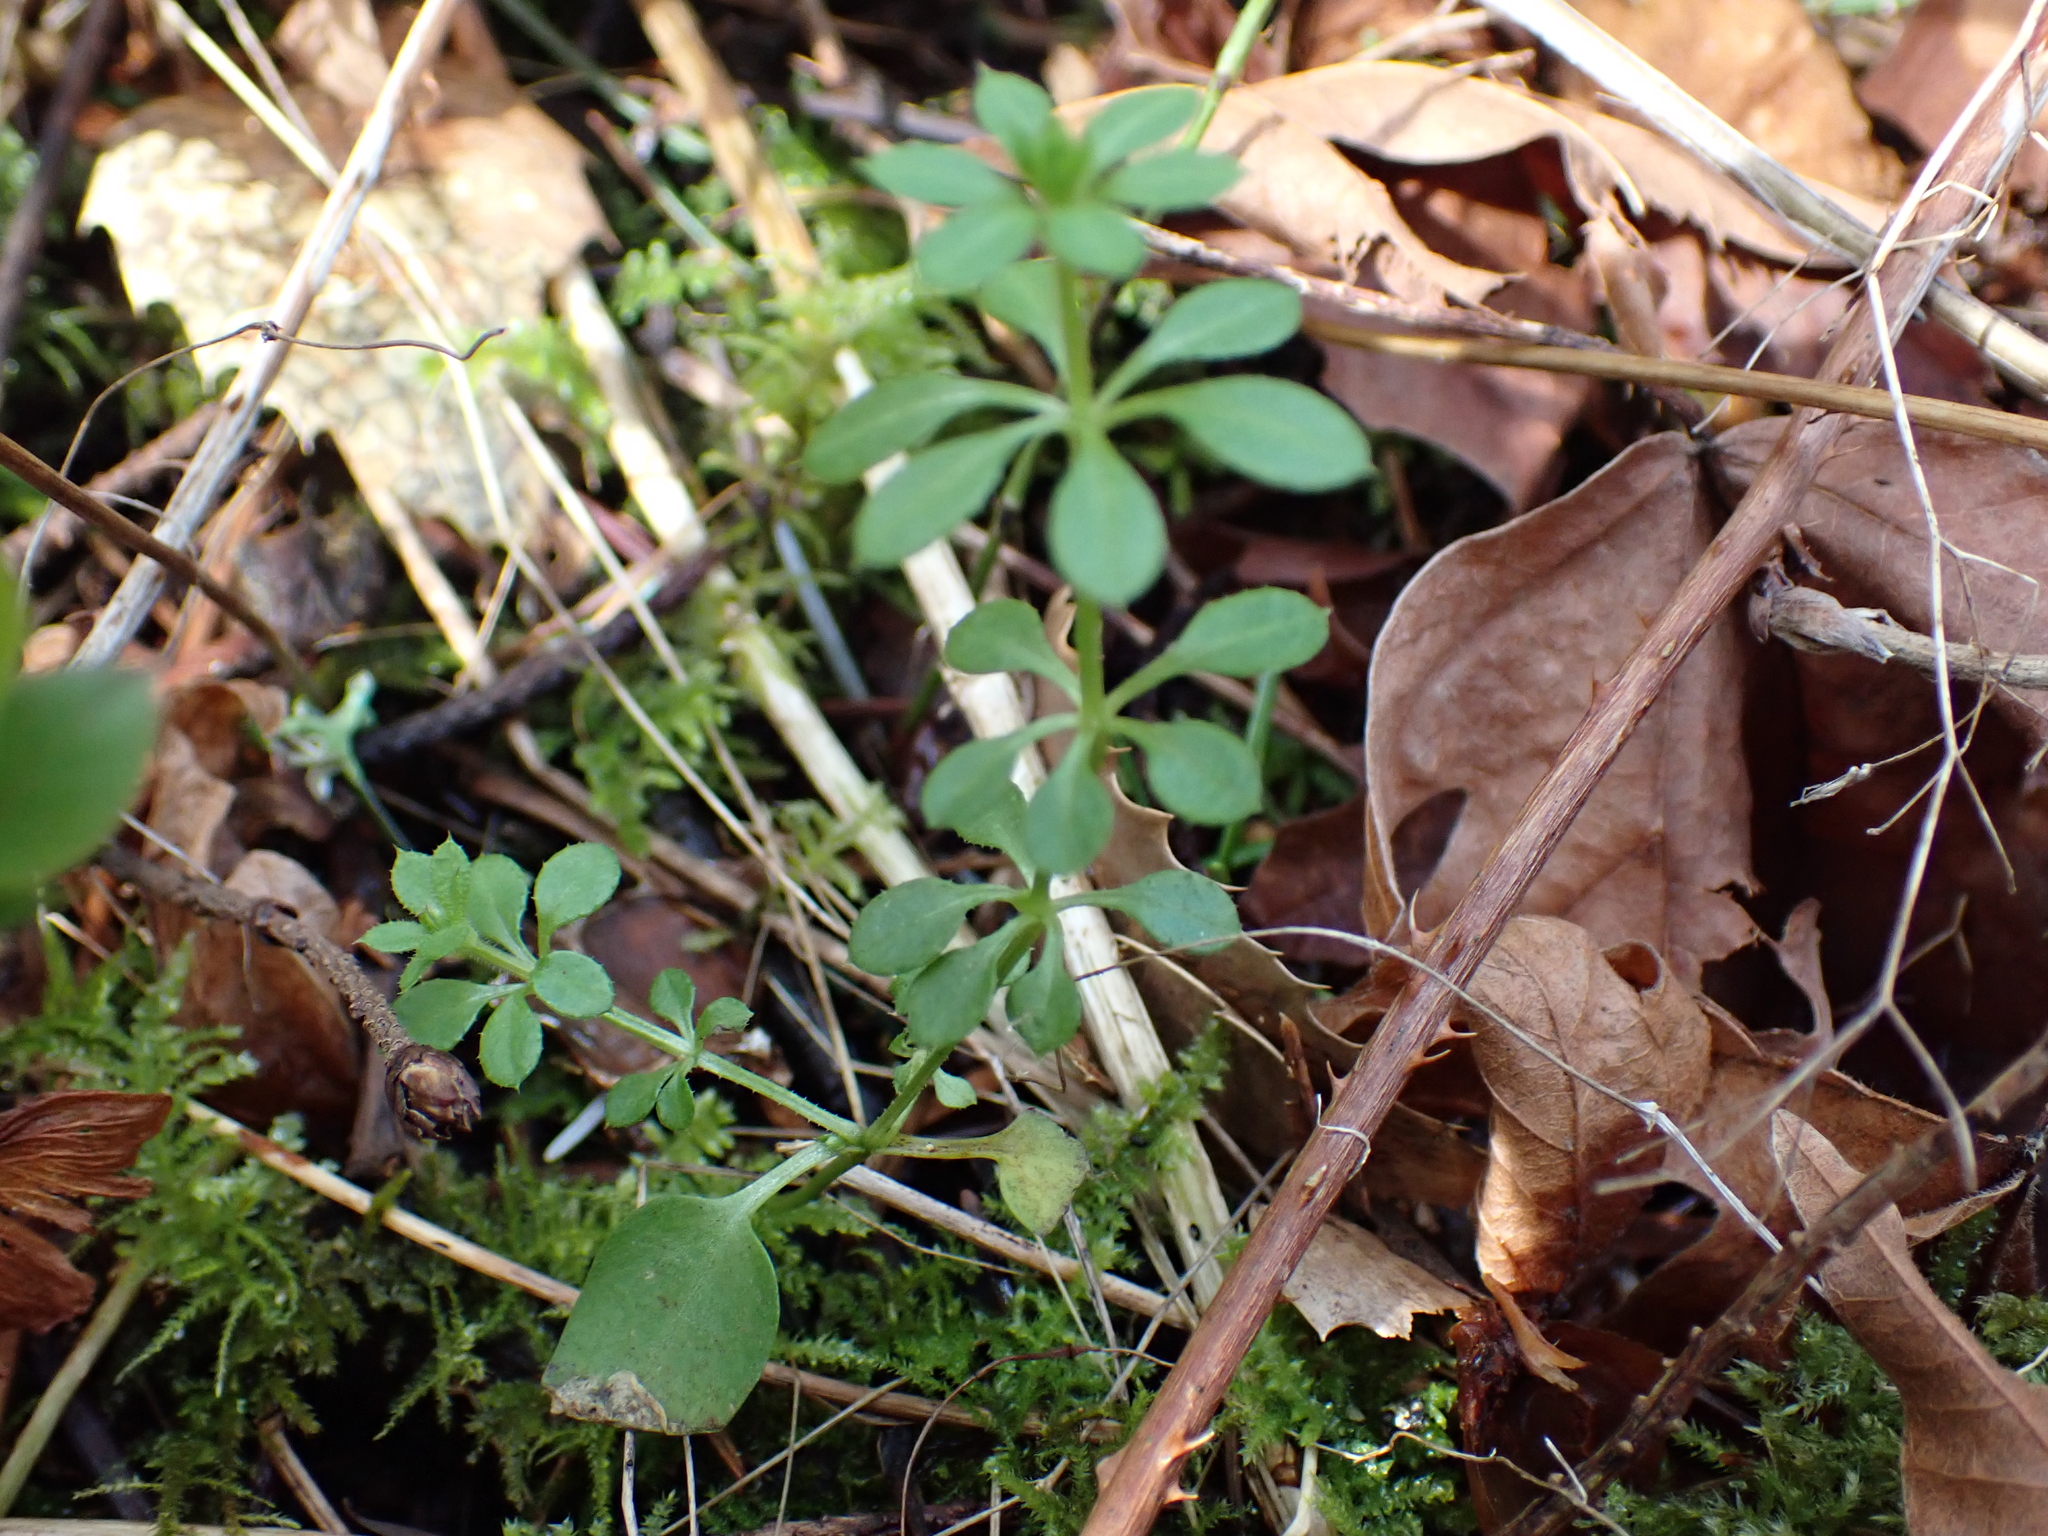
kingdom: Plantae
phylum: Tracheophyta
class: Magnoliopsida
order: Gentianales
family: Rubiaceae
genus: Galium
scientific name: Galium aparine
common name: Cleavers
